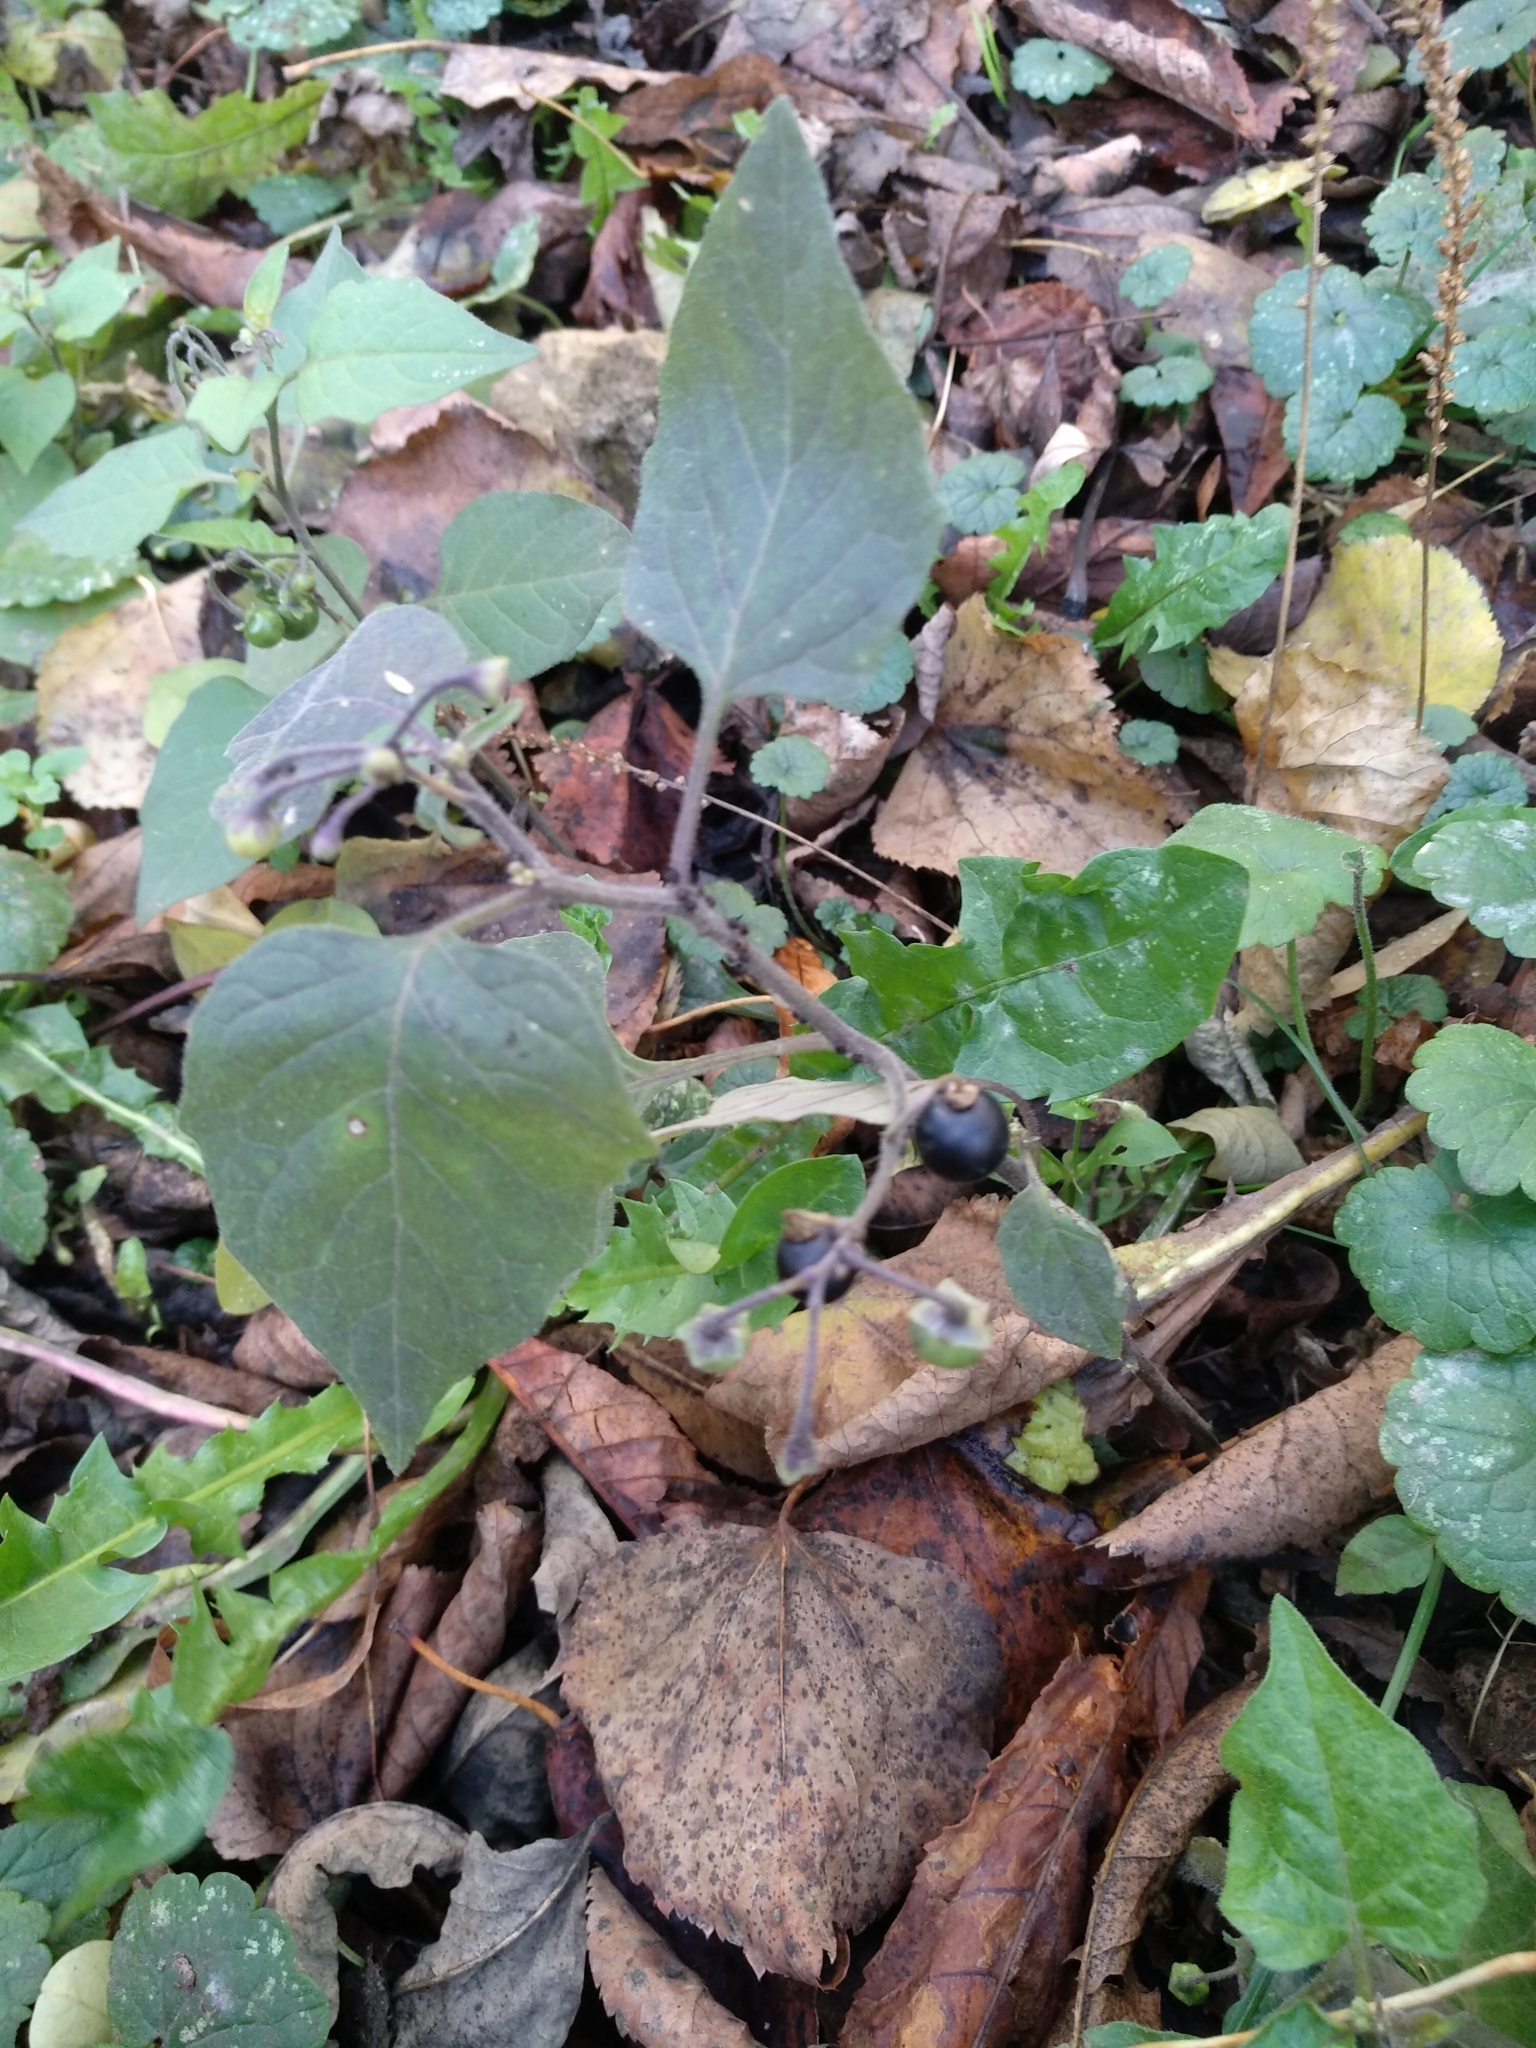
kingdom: Plantae
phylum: Tracheophyta
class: Magnoliopsida
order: Solanales
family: Solanaceae
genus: Solanum
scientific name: Solanum nigrum
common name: Black nightshade
